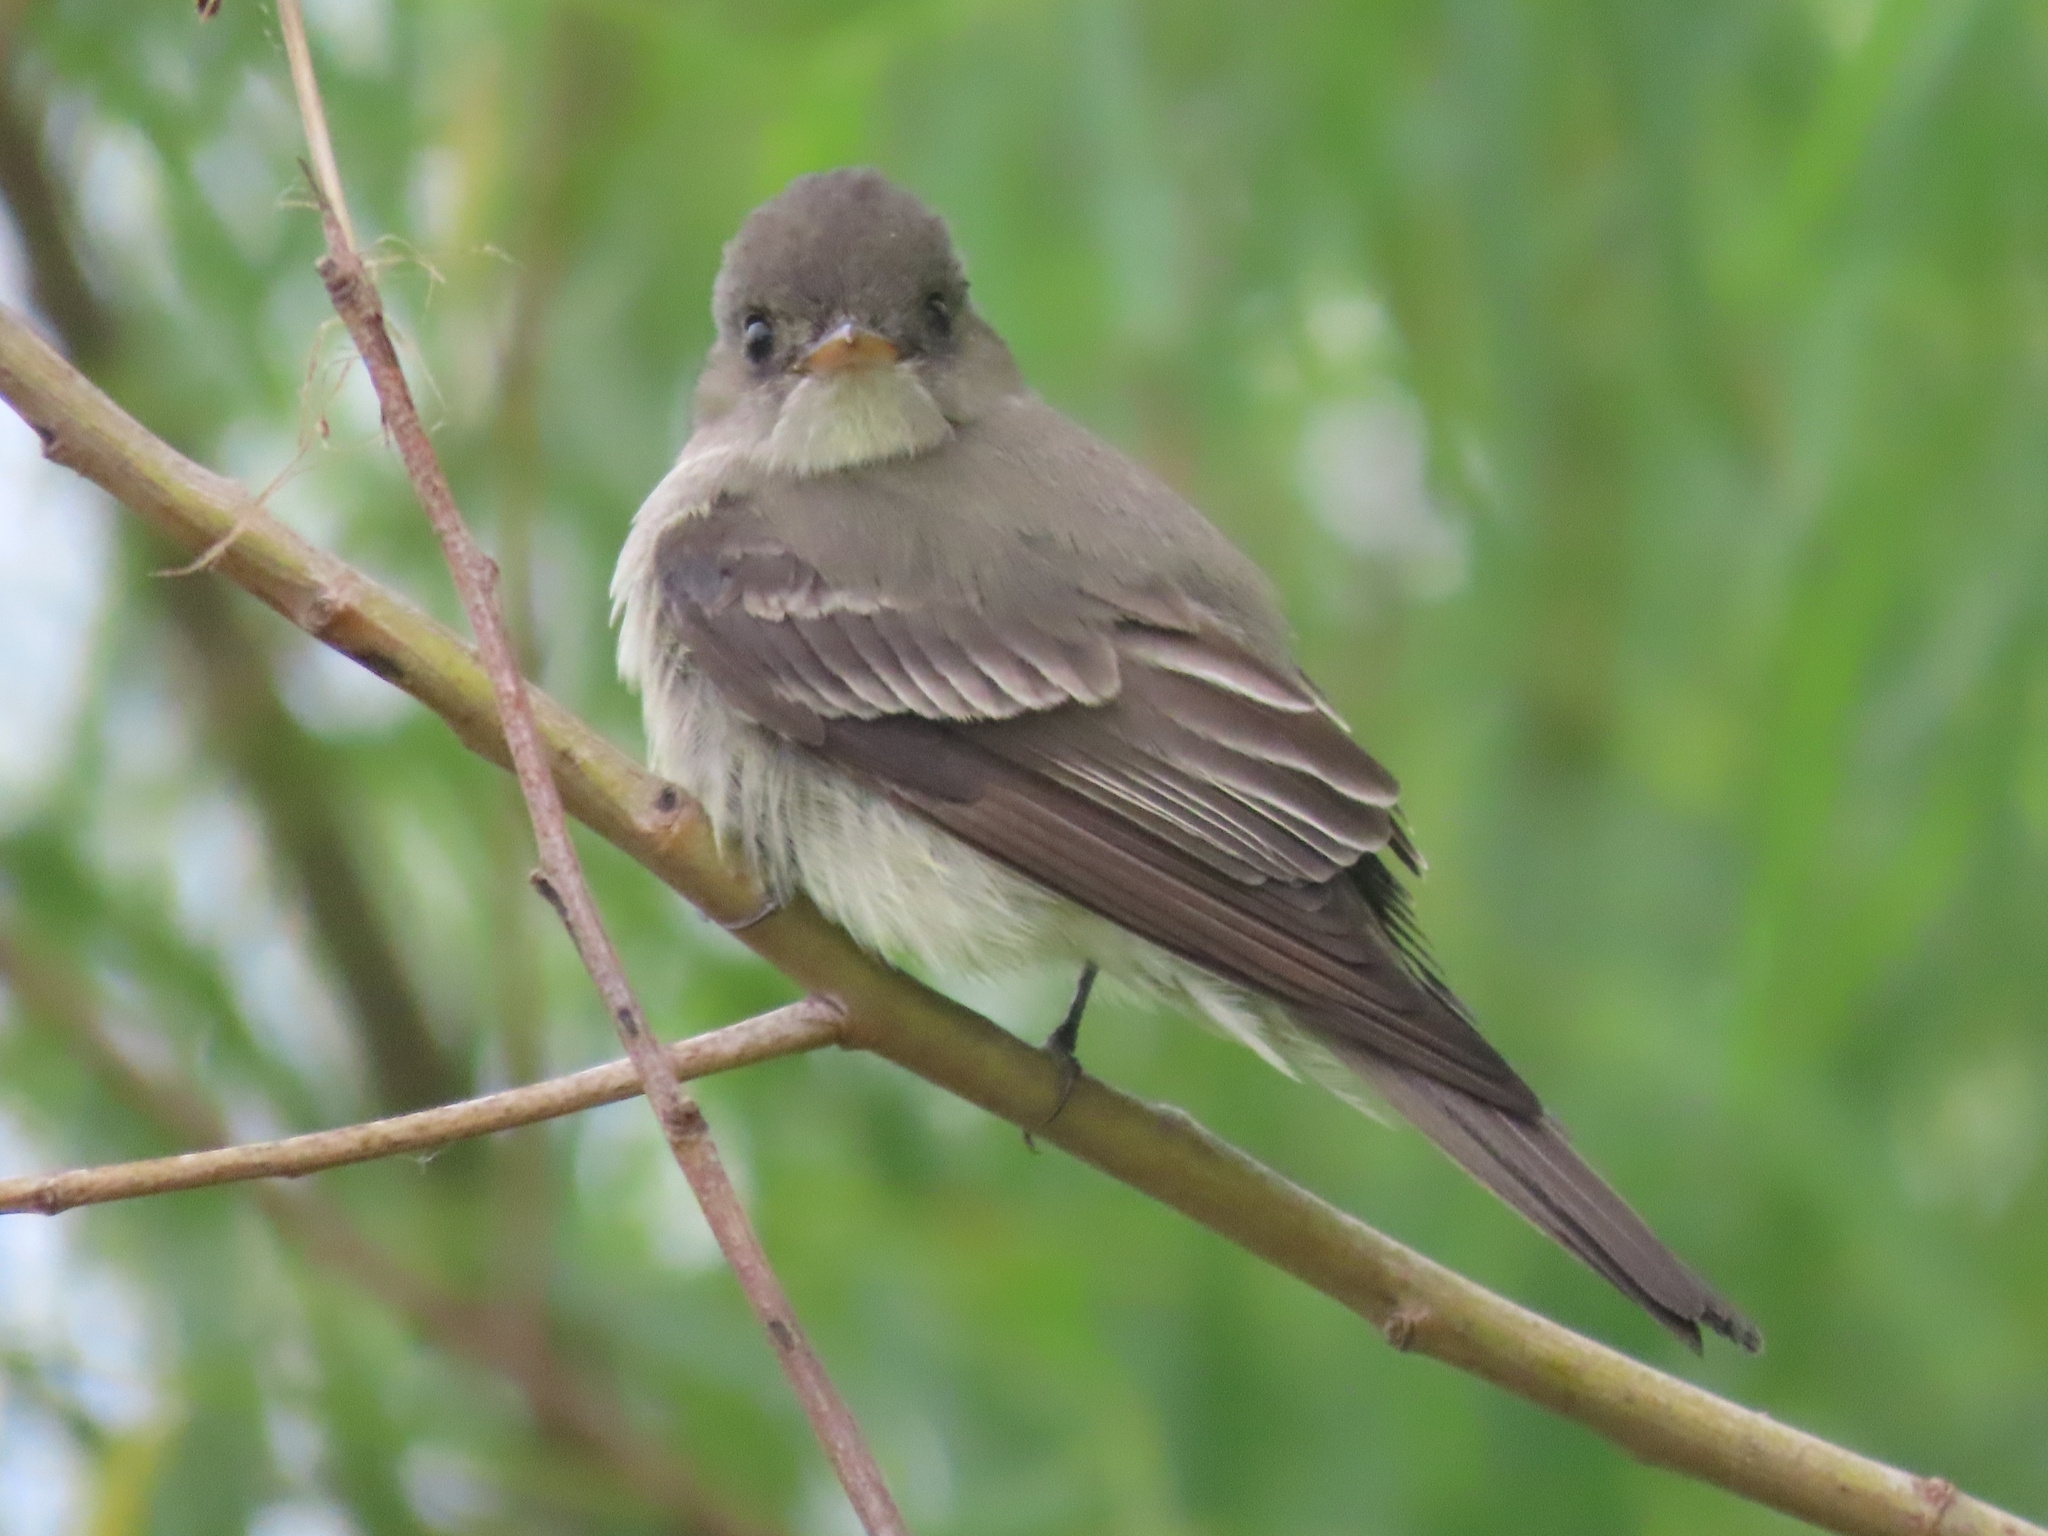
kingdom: Animalia
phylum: Chordata
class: Aves
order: Passeriformes
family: Tyrannidae
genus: Contopus
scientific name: Contopus virens
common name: Eastern wood-pewee
